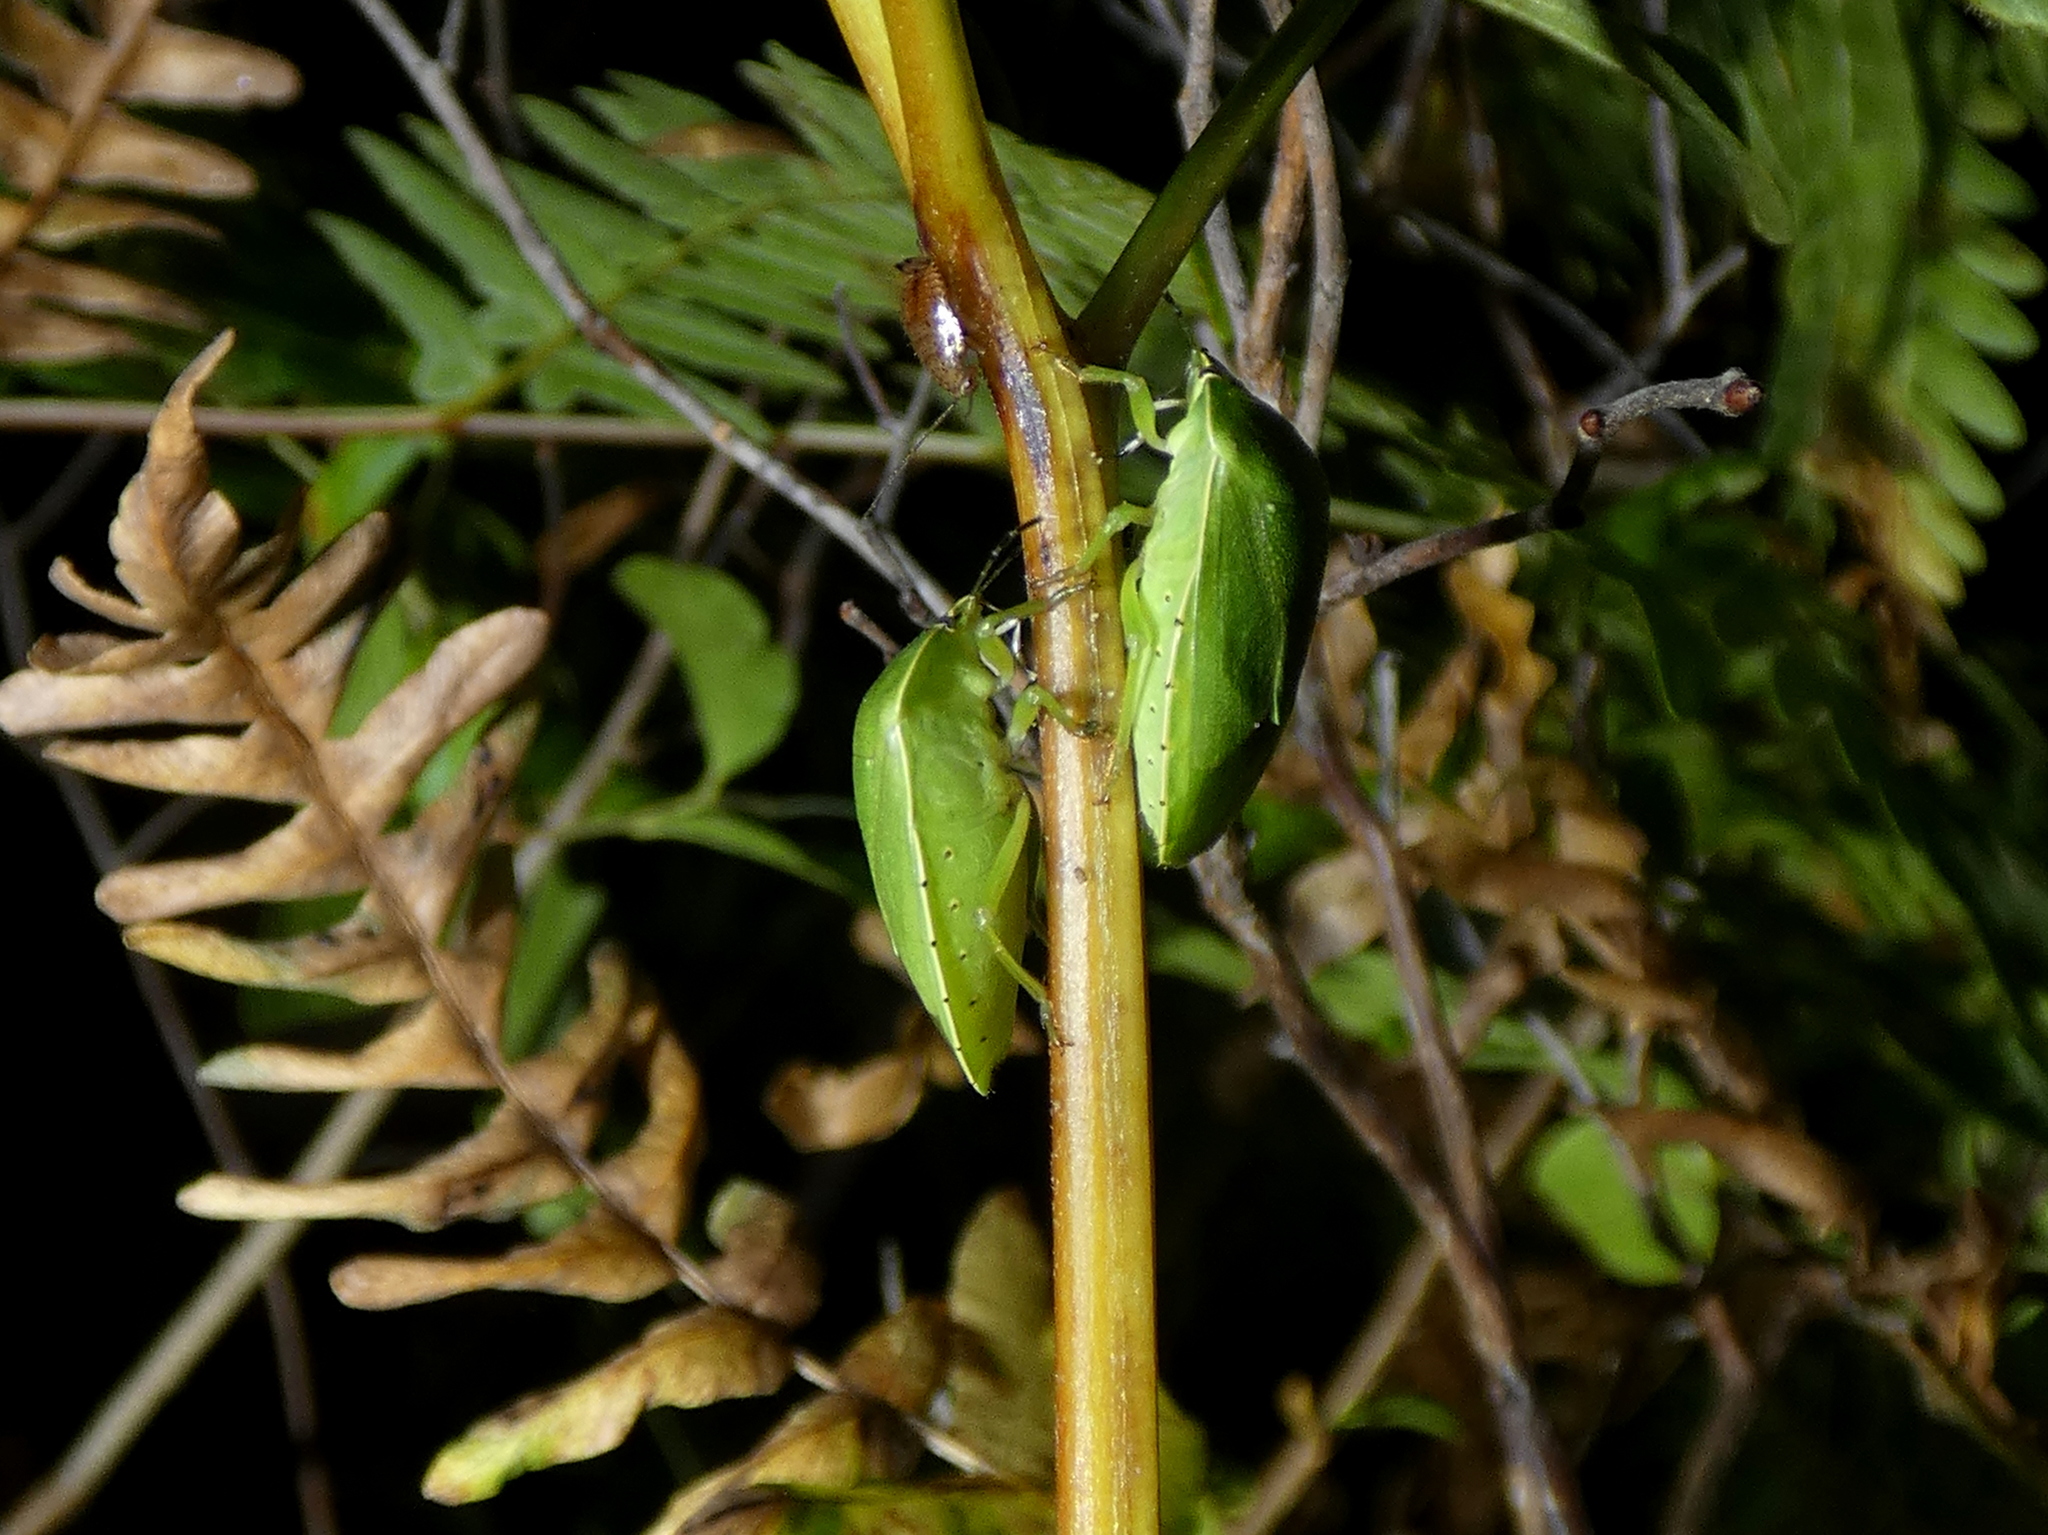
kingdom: Animalia
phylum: Arthropoda
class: Insecta
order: Hemiptera
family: Pentatomidae
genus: Chinavia
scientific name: Chinavia
